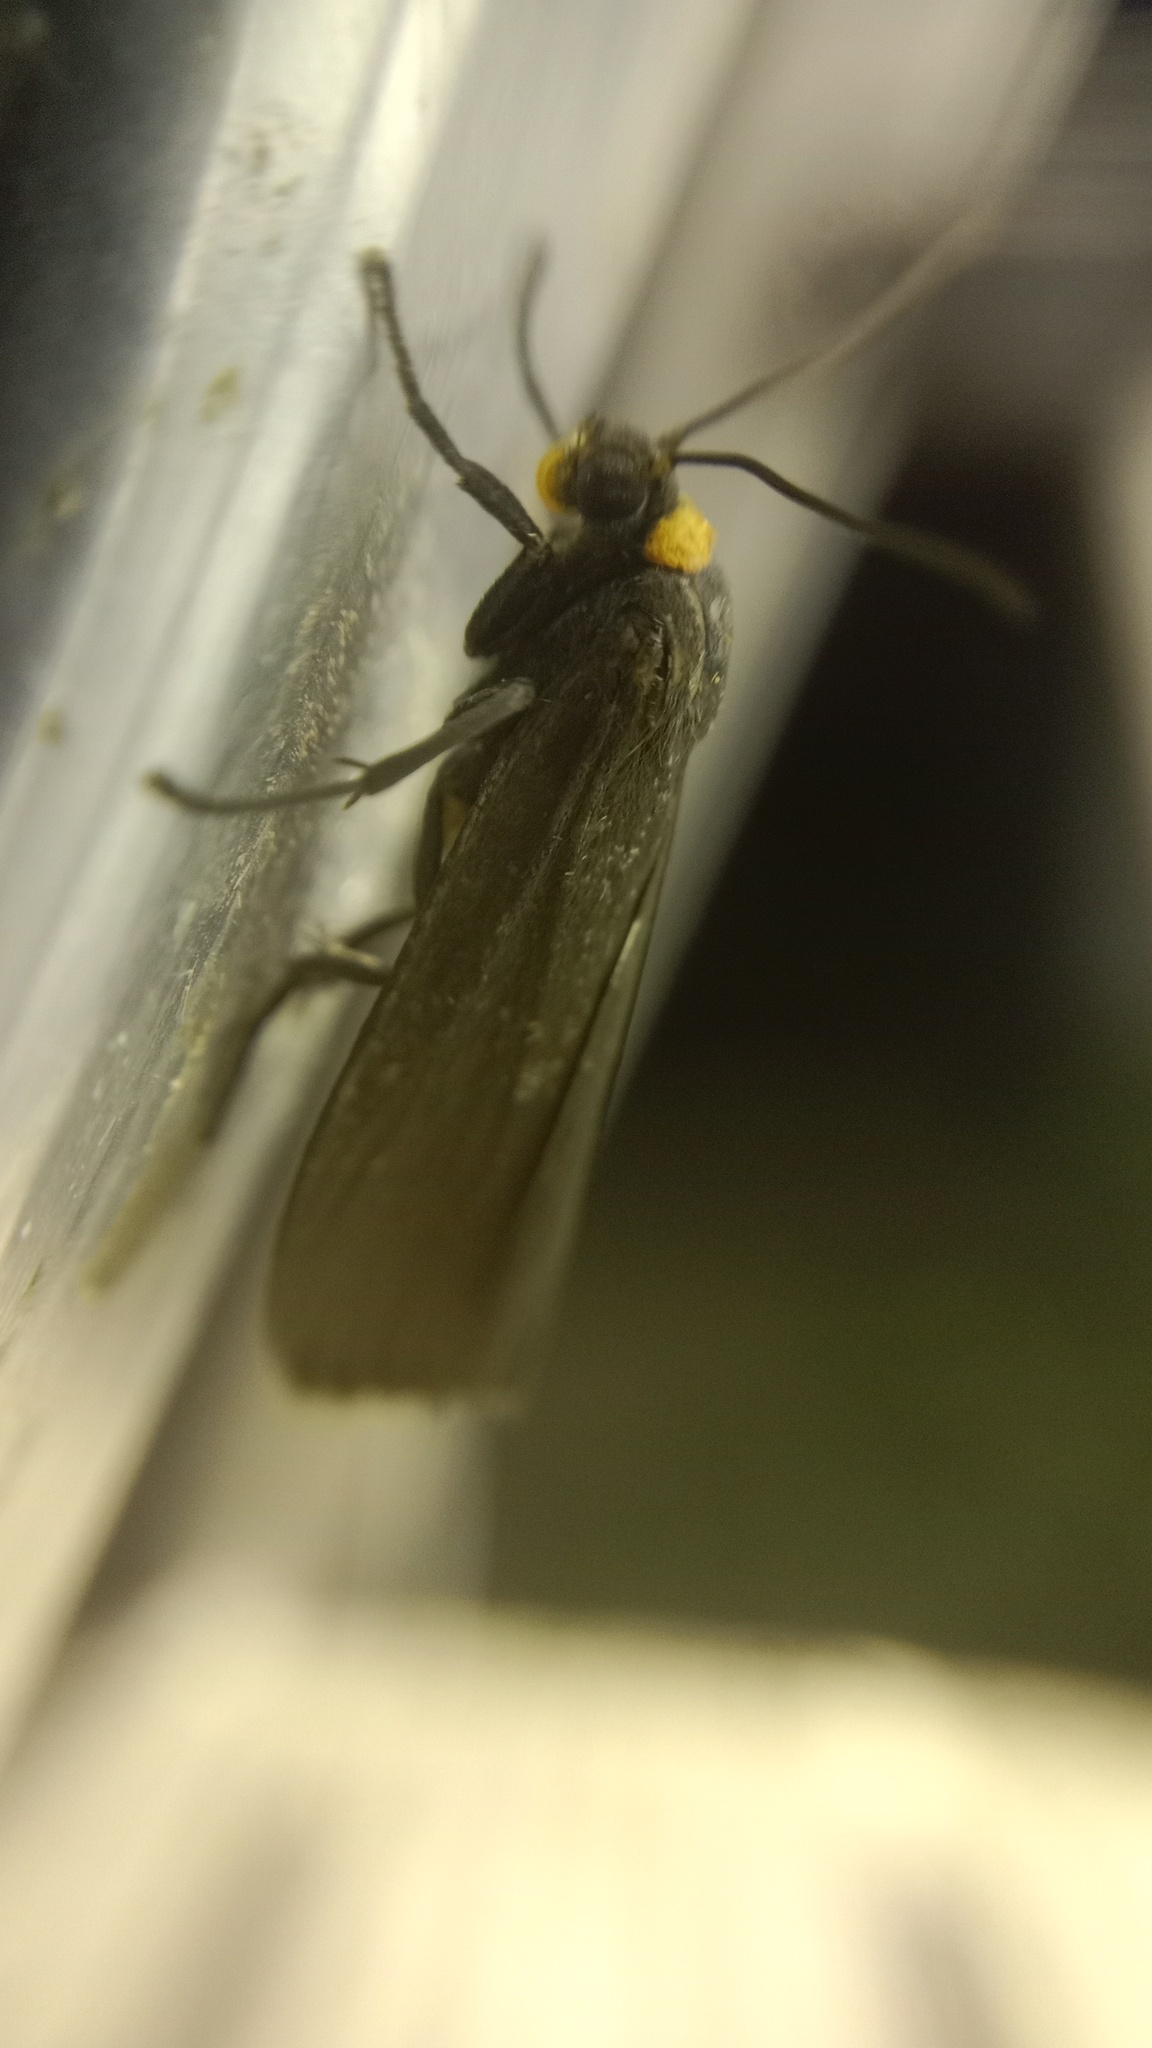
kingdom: Animalia
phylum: Arthropoda
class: Insecta
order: Lepidoptera
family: Erebidae
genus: Atolmis
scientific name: Atolmis rubricollis
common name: Red-necked footman
